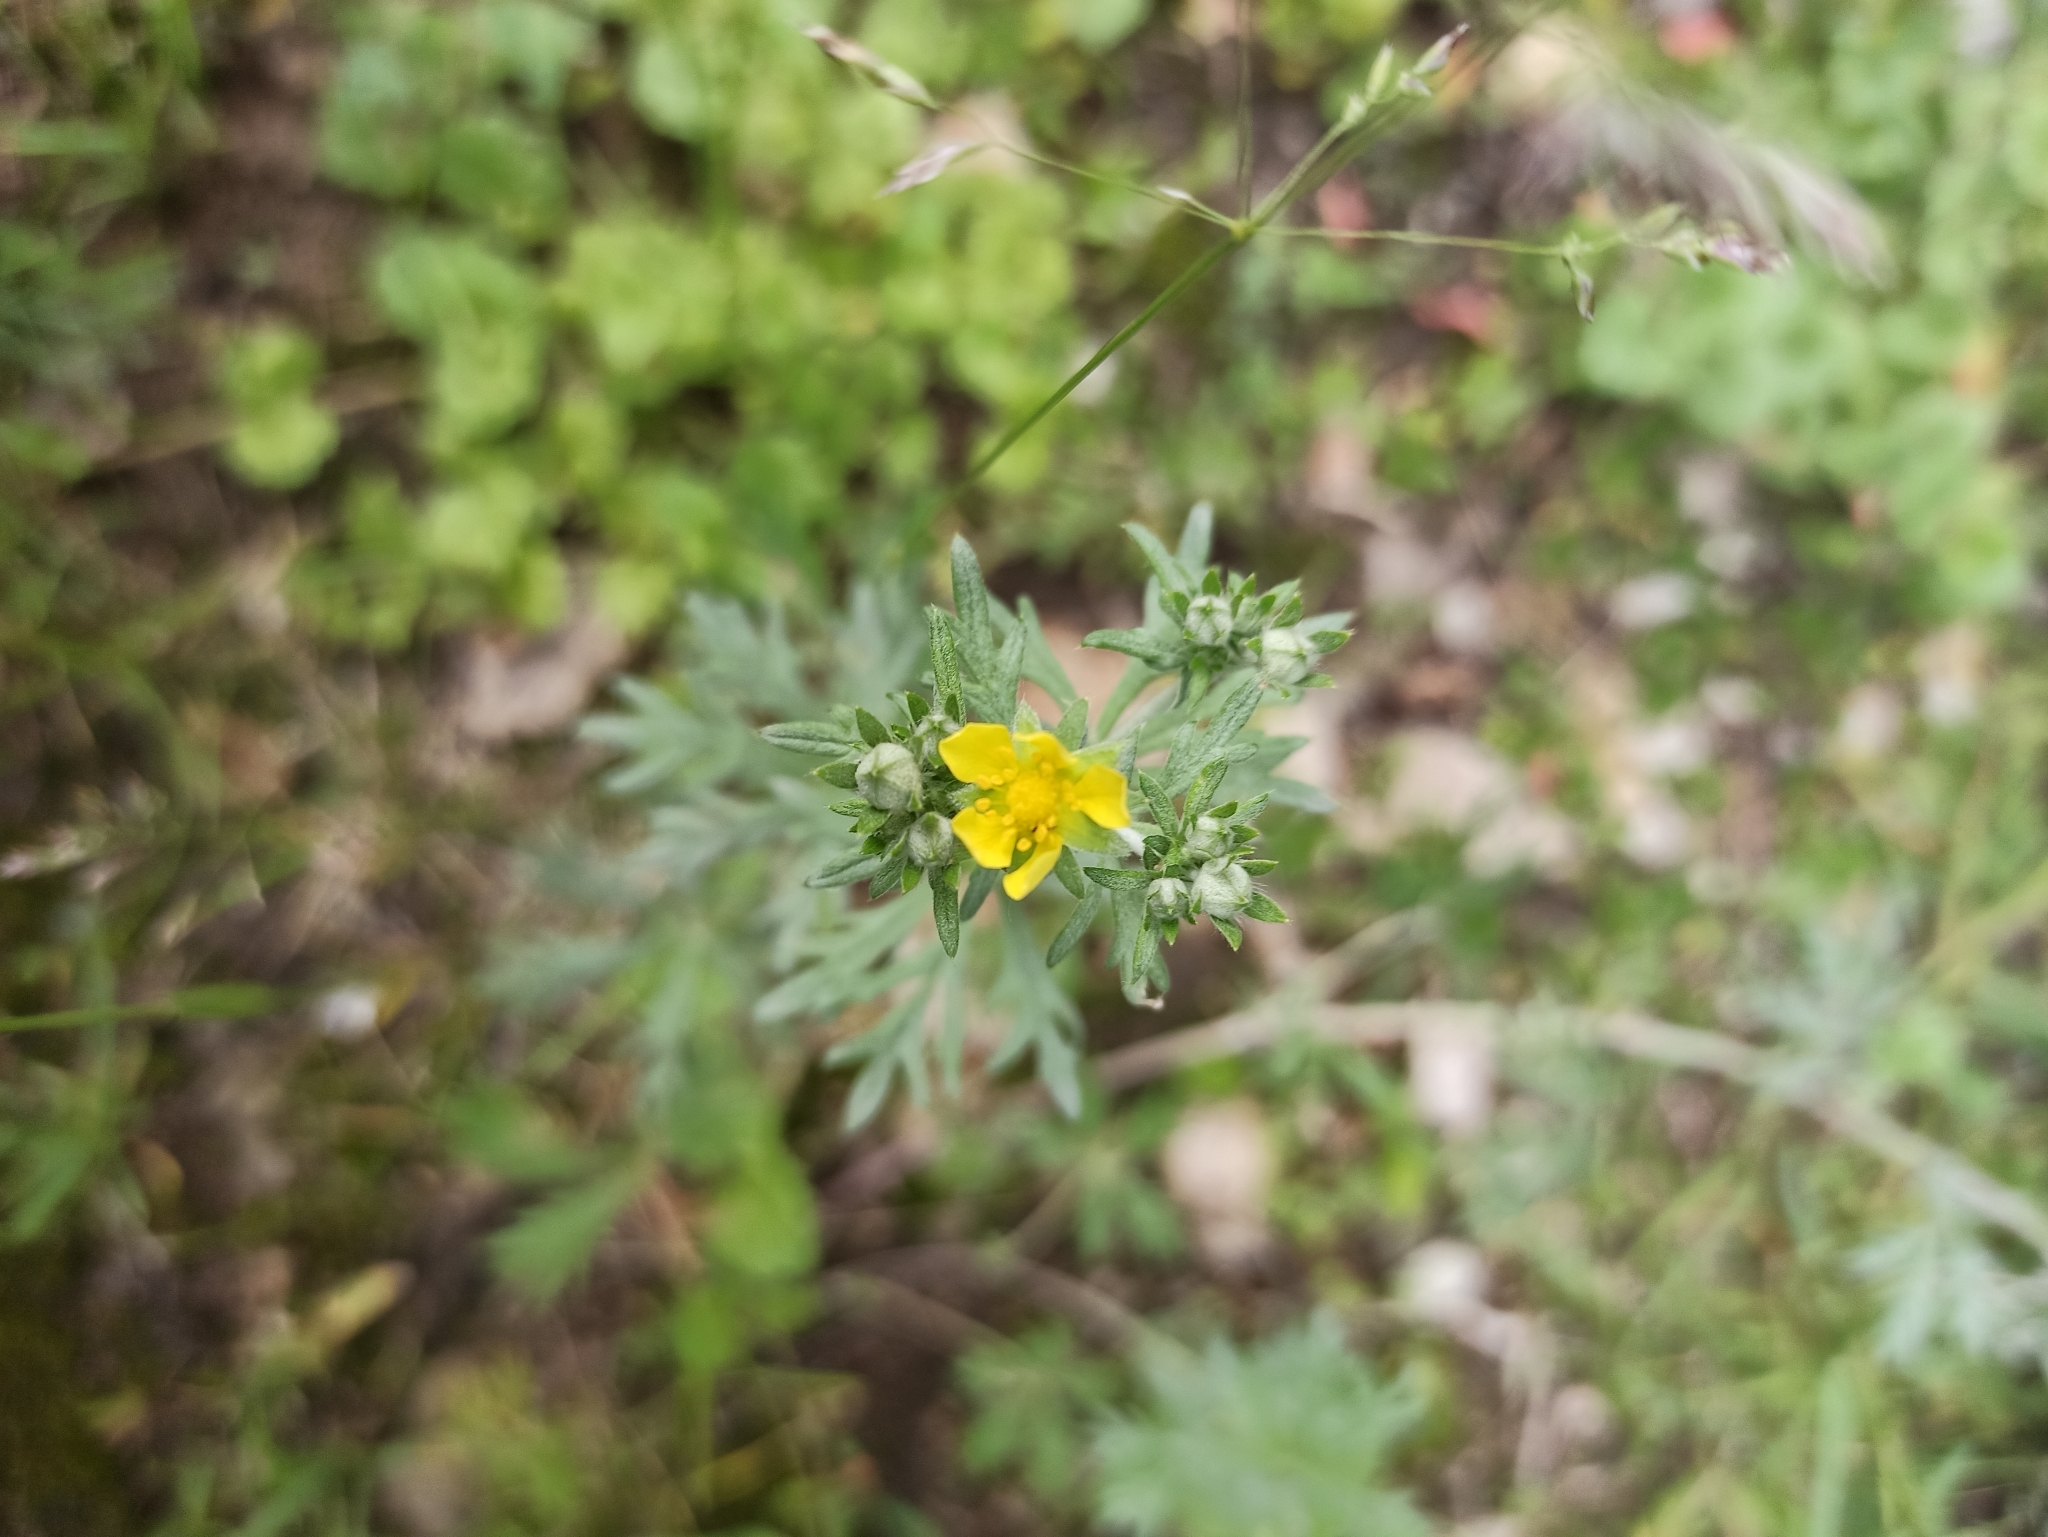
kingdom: Plantae
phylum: Tracheophyta
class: Magnoliopsida
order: Rosales
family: Rosaceae
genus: Potentilla
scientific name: Potentilla argentea
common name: Hoary cinquefoil
